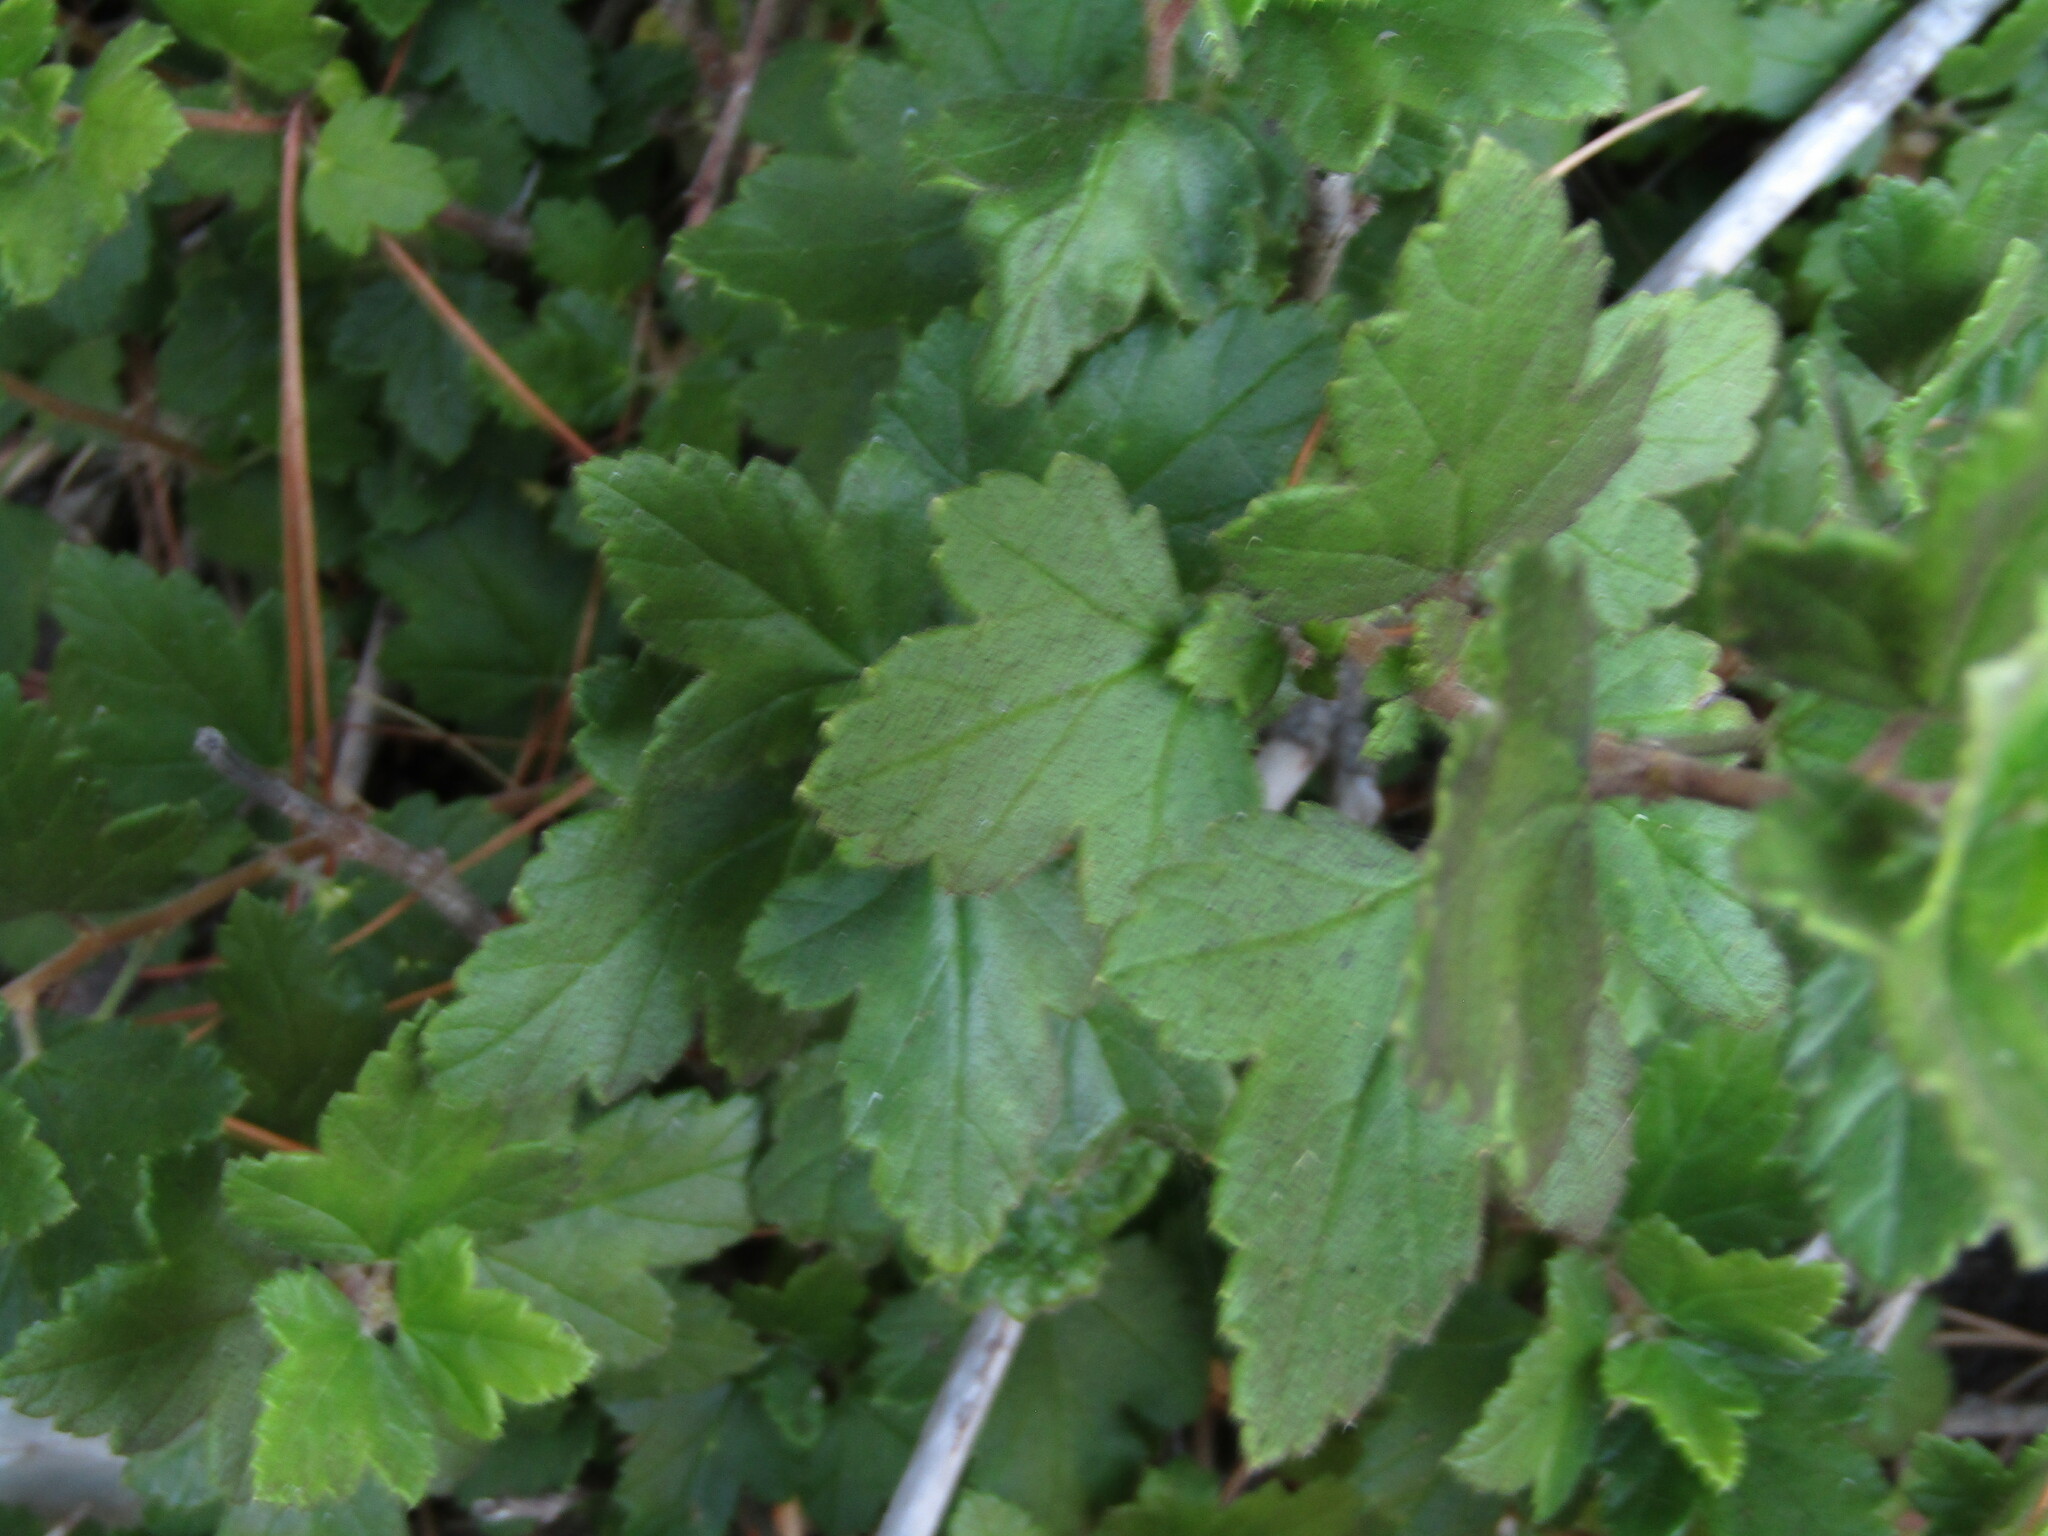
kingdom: Plantae
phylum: Tracheophyta
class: Magnoliopsida
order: Saxifragales
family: Grossulariaceae
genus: Ribes
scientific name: Ribes punctatum
